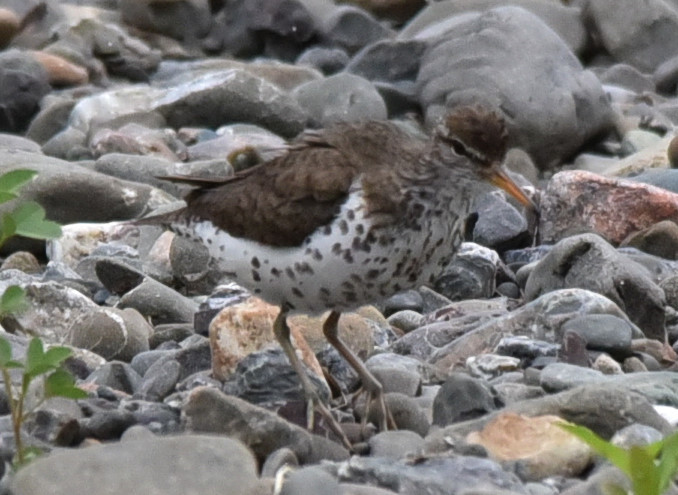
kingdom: Animalia
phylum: Chordata
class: Aves
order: Charadriiformes
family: Scolopacidae
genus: Actitis
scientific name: Actitis macularius
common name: Spotted sandpiper
